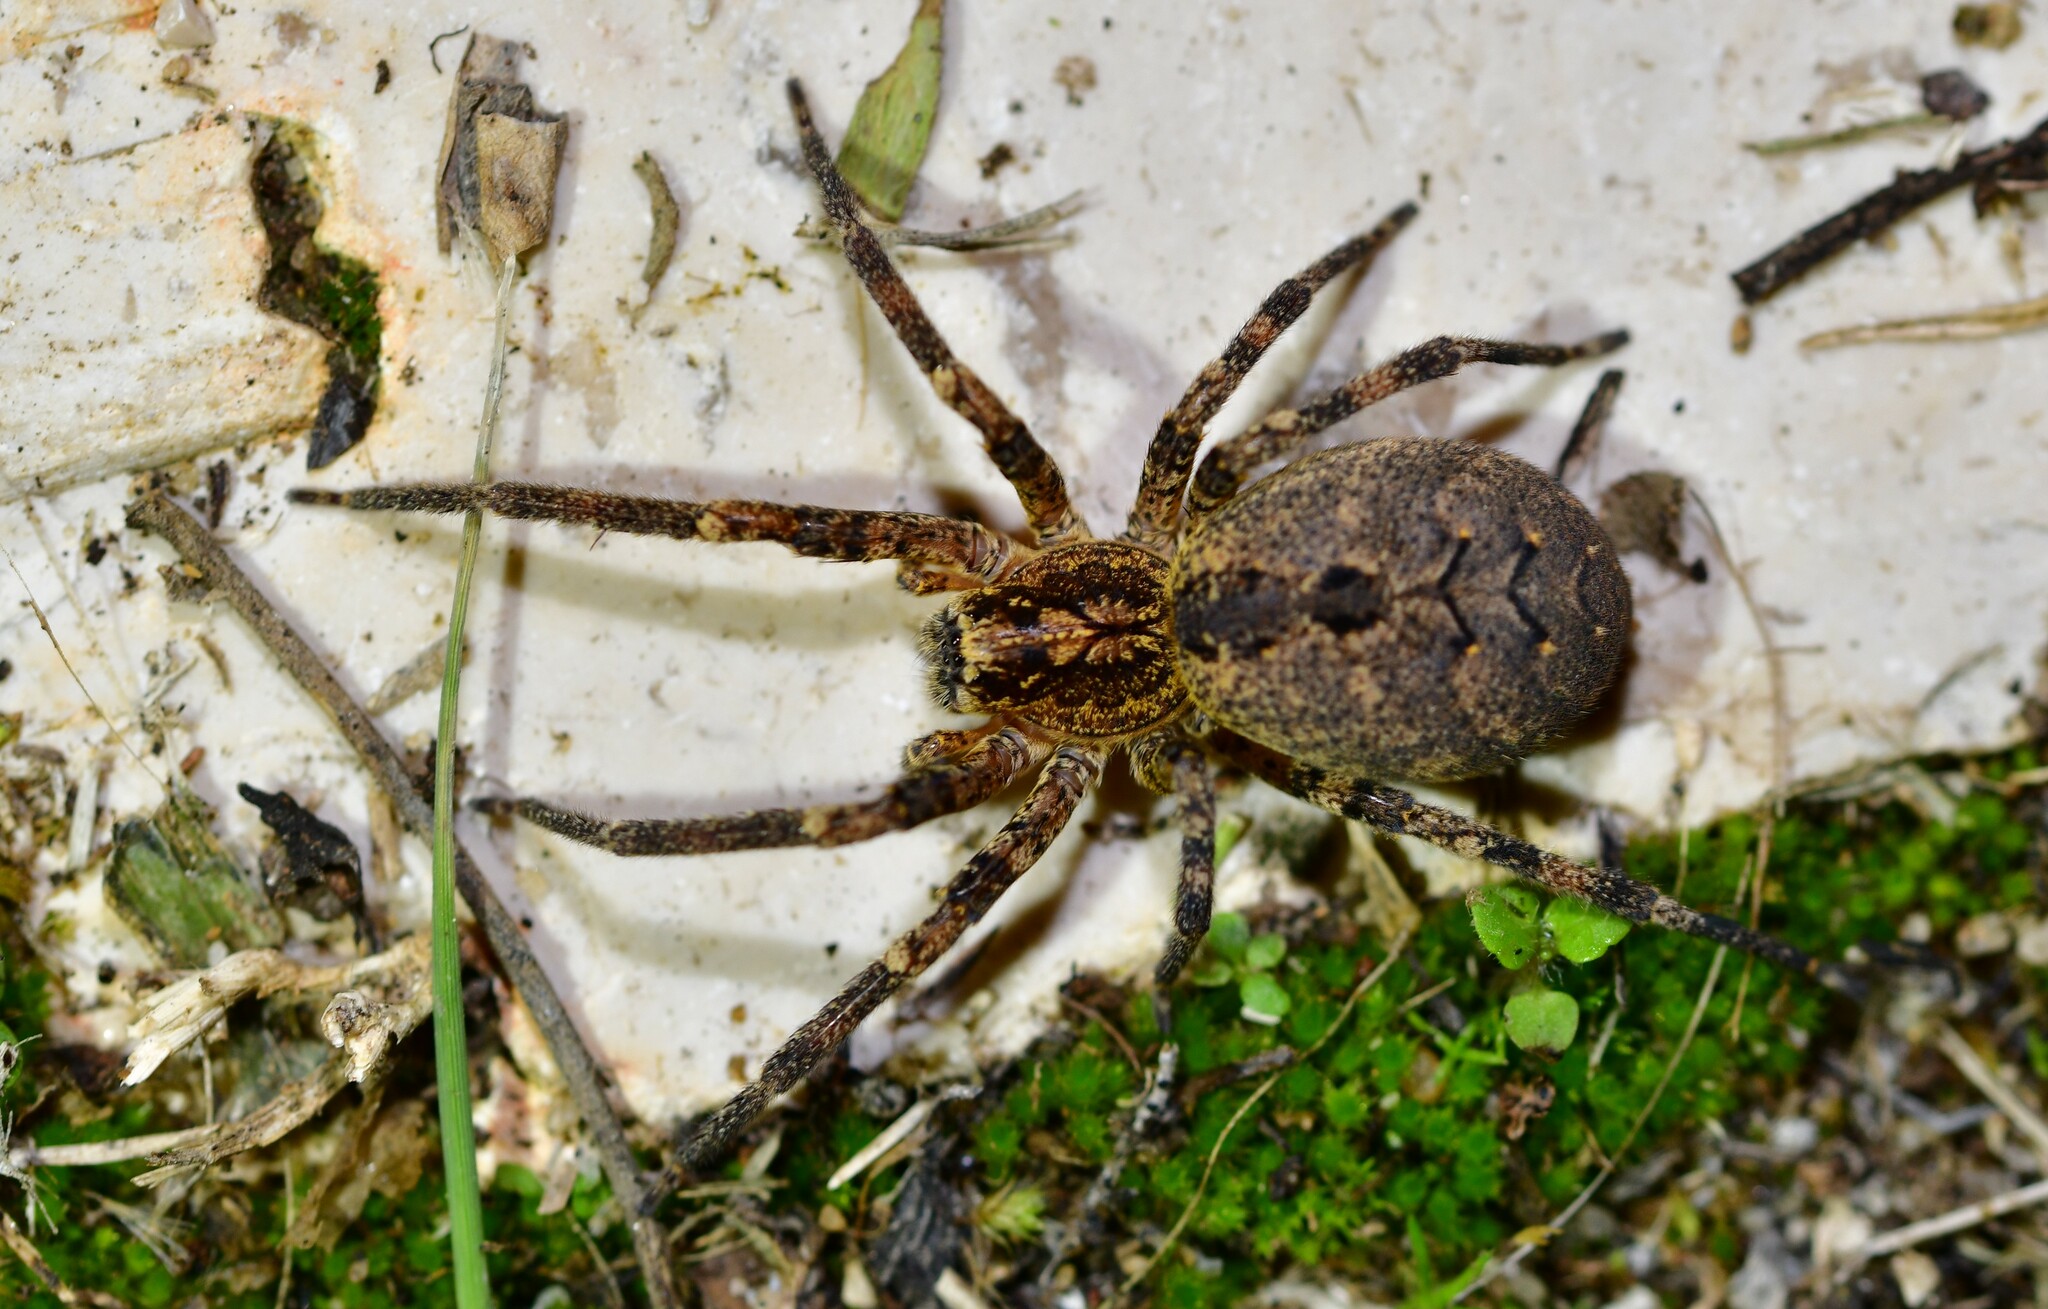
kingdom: Animalia
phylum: Arthropoda
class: Arachnida
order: Araneae
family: Zoropsidae
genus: Zoropsis
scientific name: Zoropsis spinimana
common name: Zoropsid spider
